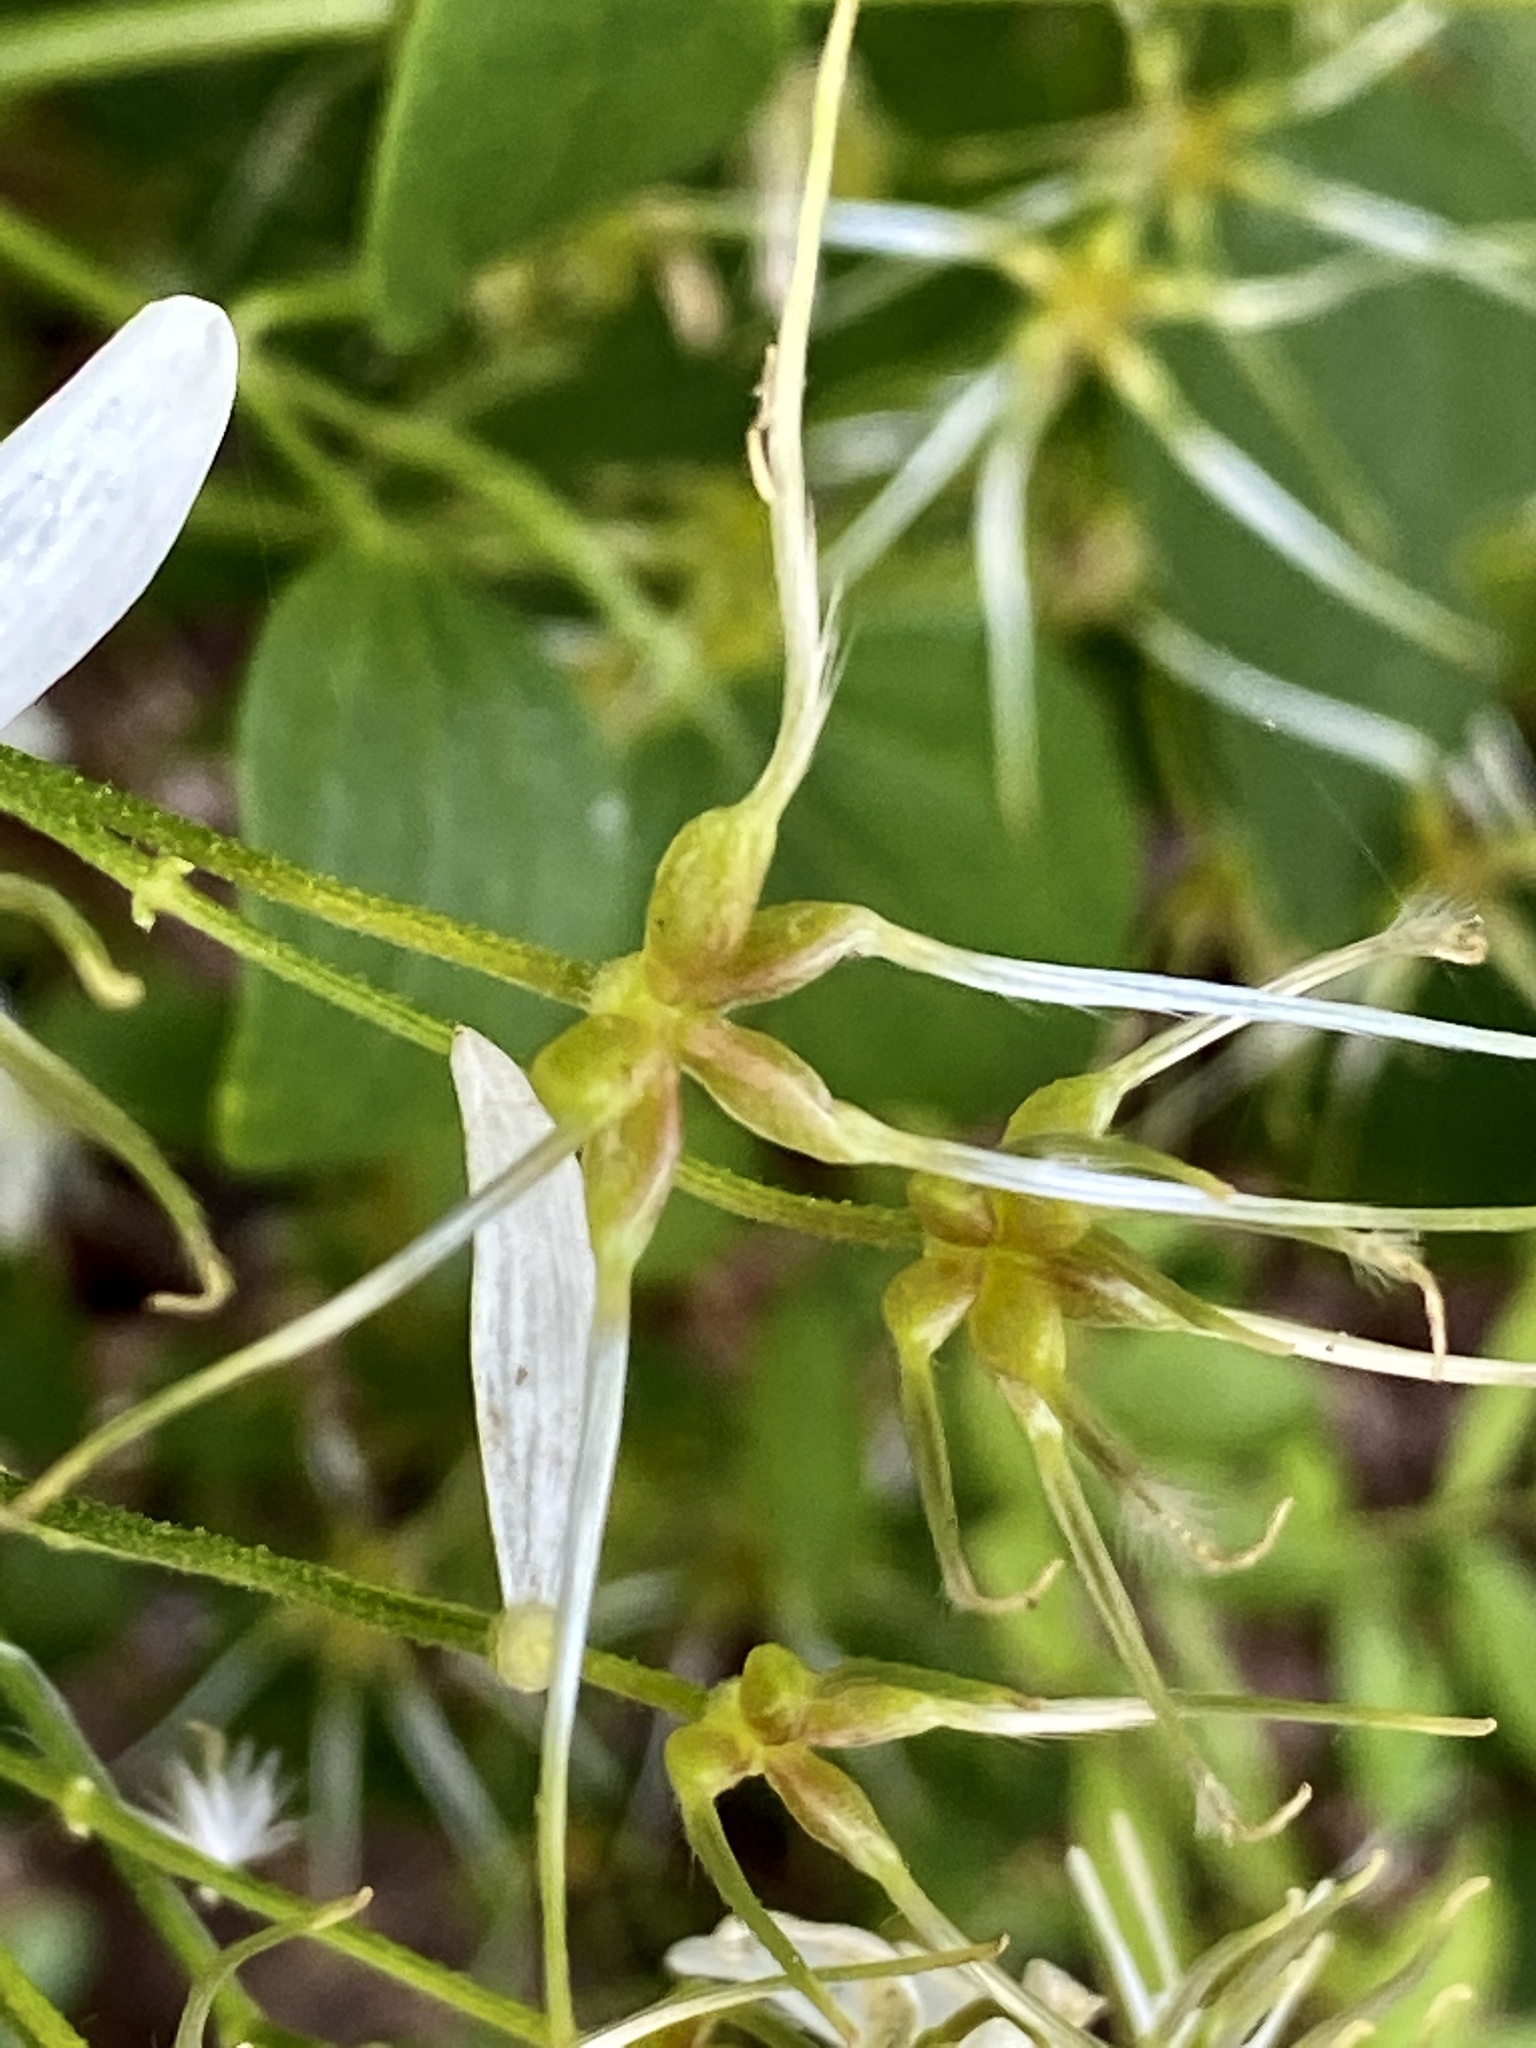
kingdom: Plantae
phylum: Tracheophyta
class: Magnoliopsida
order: Ranunculales
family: Ranunculaceae
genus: Clematis
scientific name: Clematis terniflora
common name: Sweet autumn clematis
